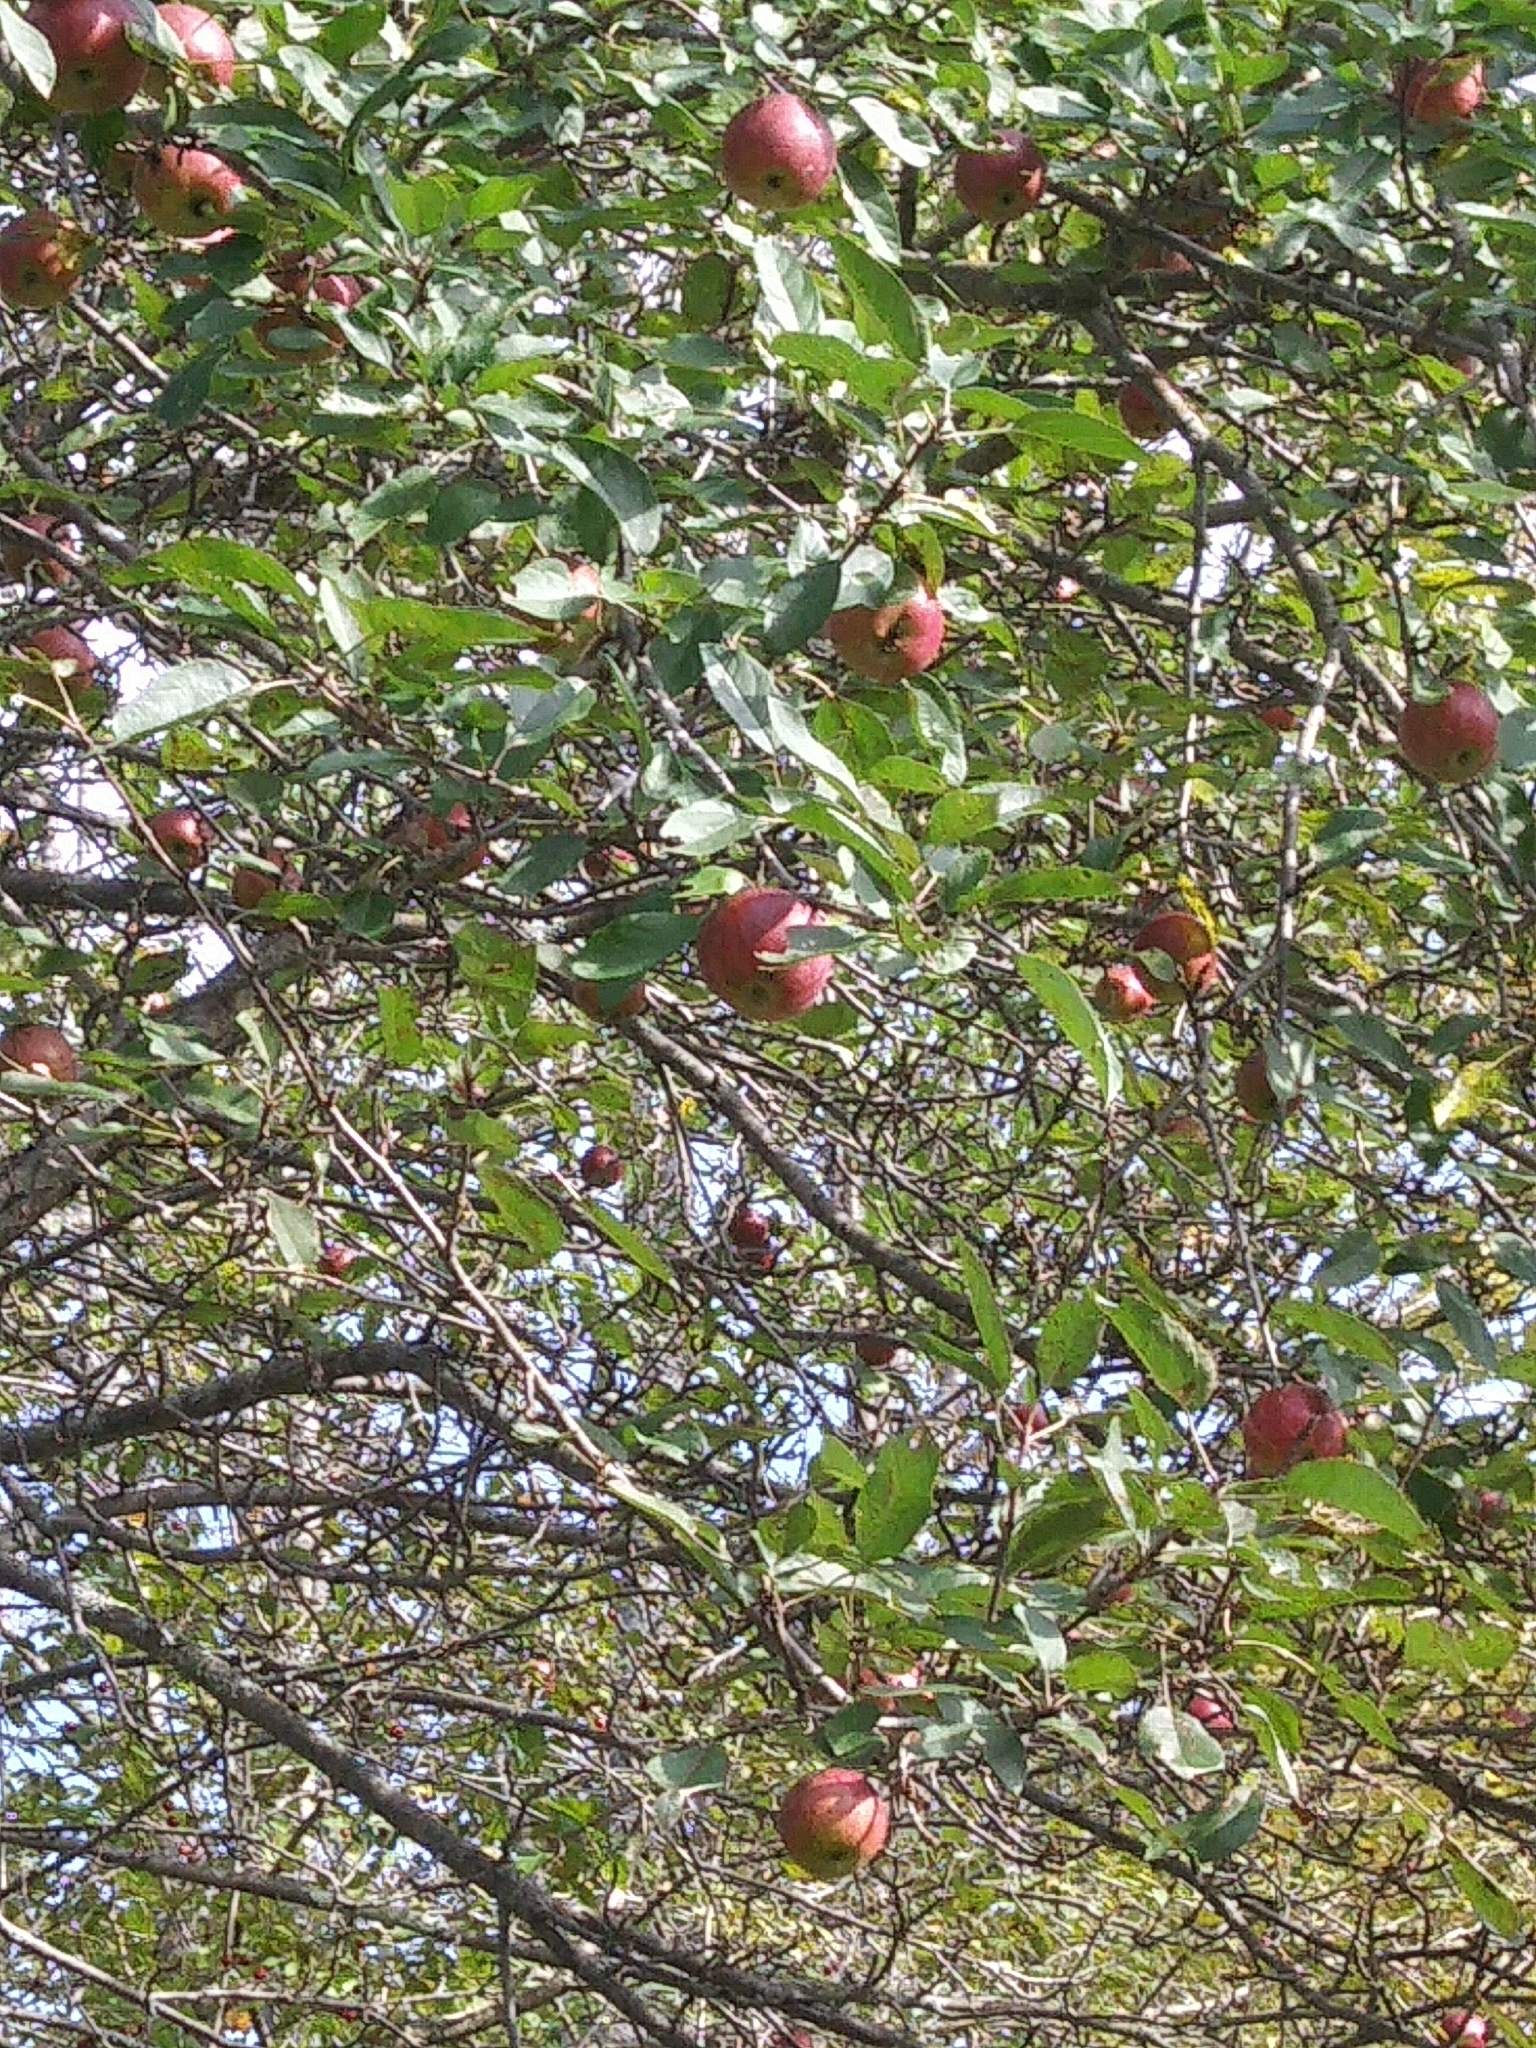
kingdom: Plantae
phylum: Tracheophyta
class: Magnoliopsida
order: Rosales
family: Rosaceae
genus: Malus
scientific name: Malus domestica
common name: Apple
